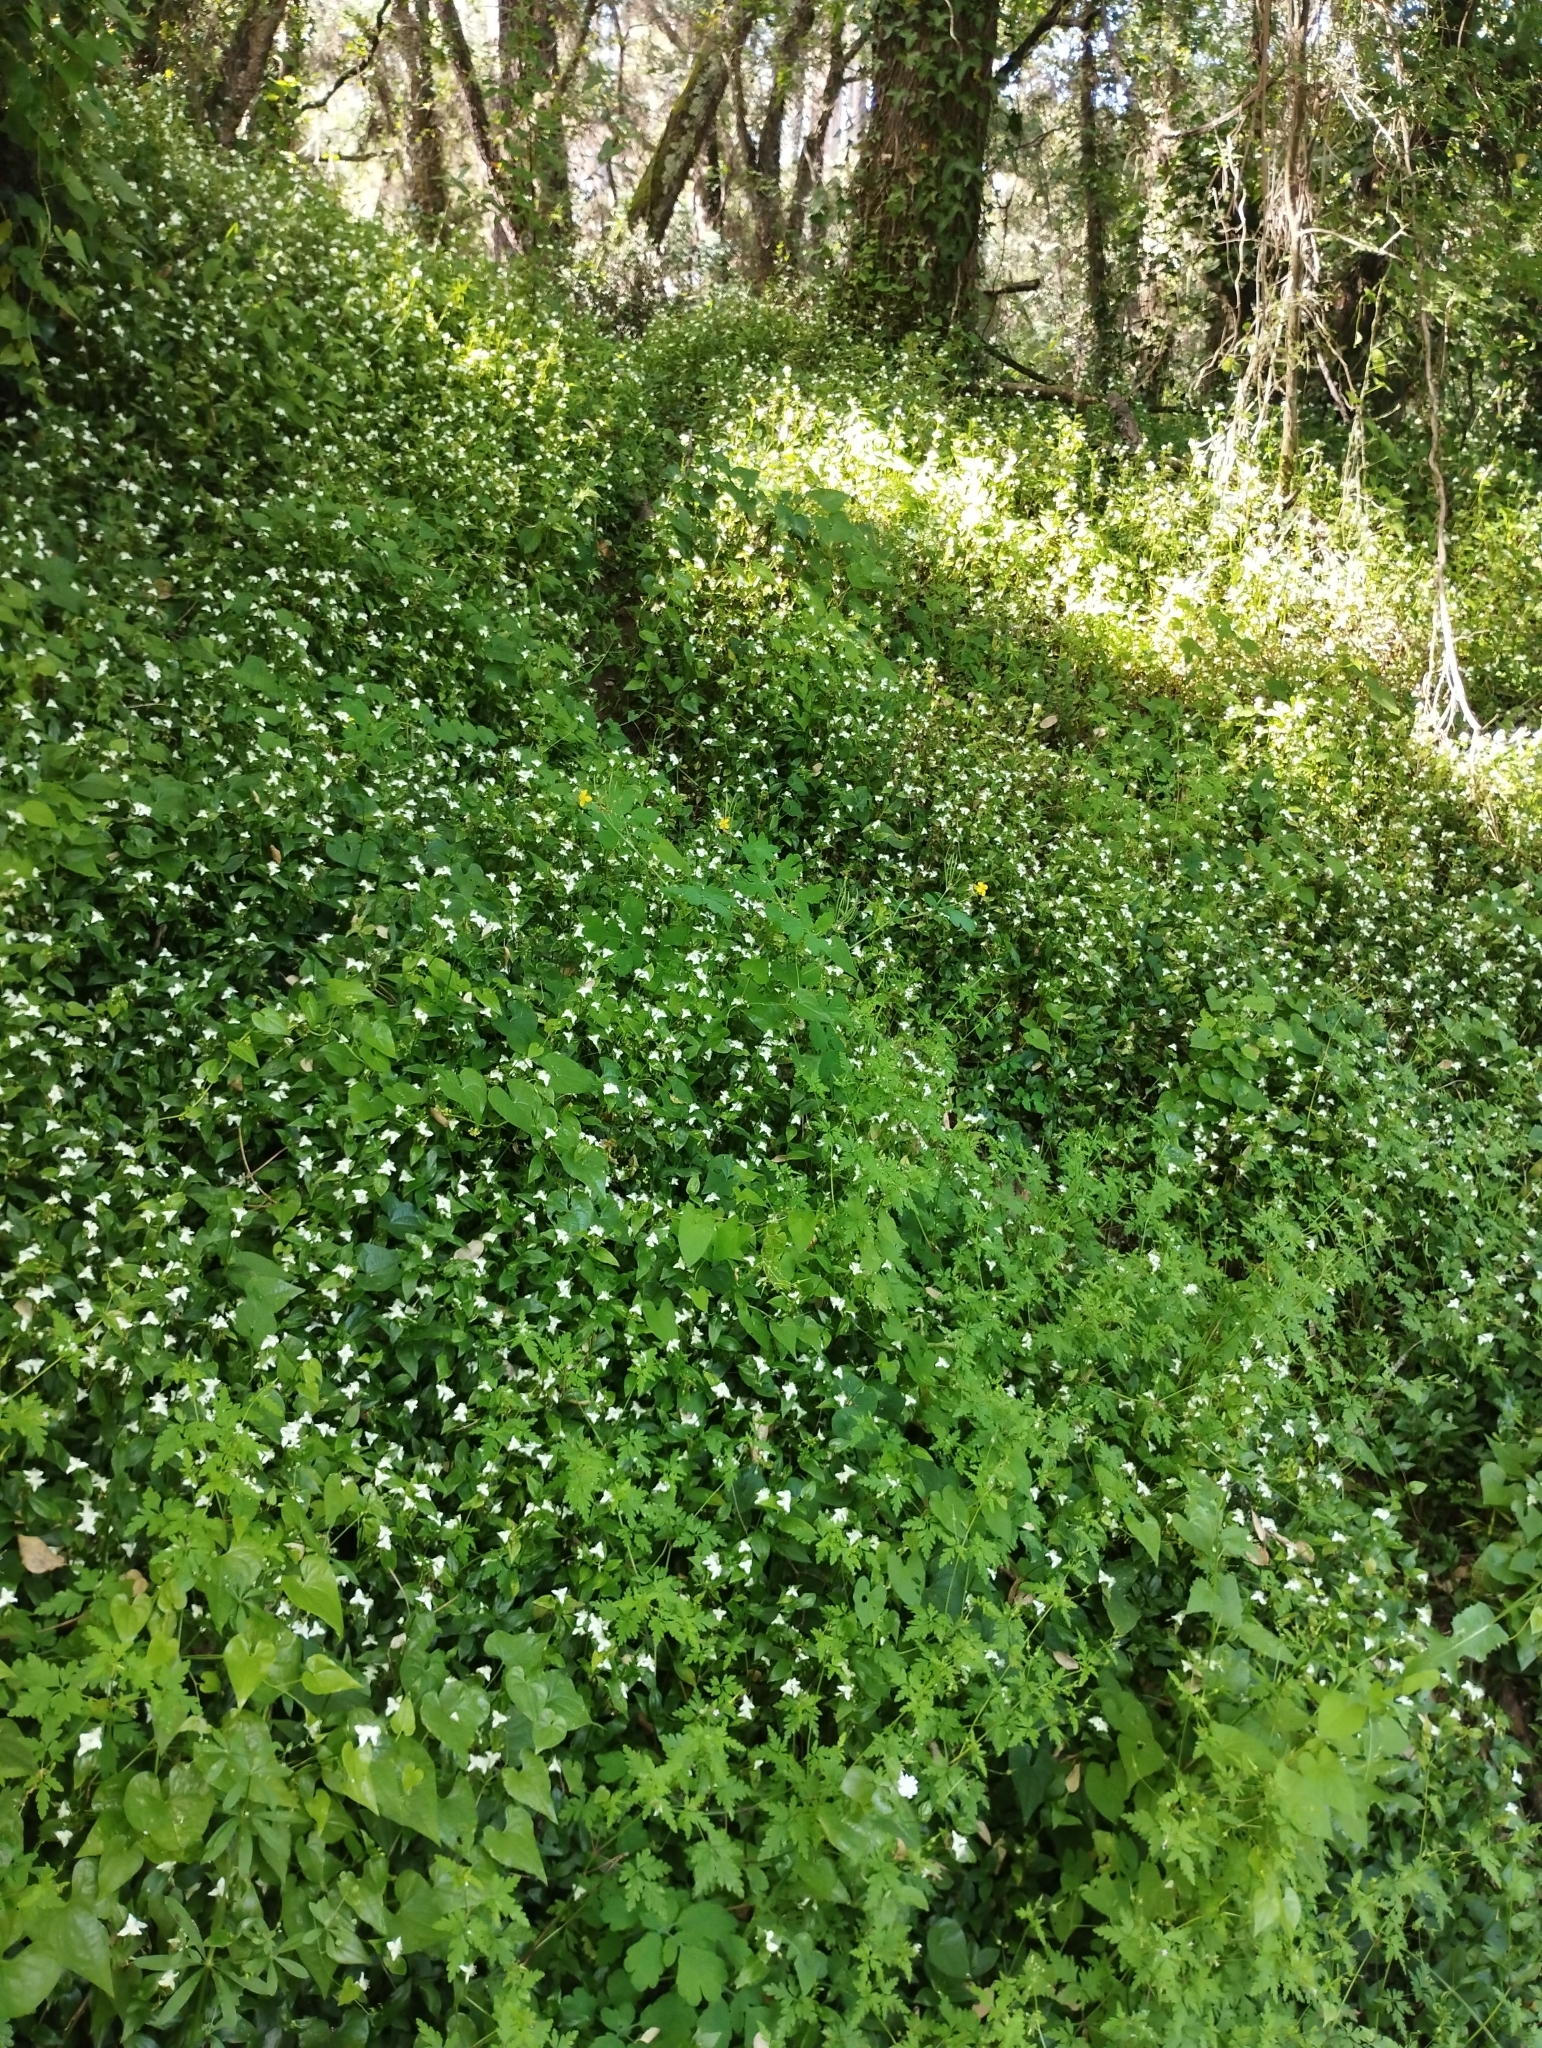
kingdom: Plantae
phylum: Tracheophyta
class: Liliopsida
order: Commelinales
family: Commelinaceae
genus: Tradescantia
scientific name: Tradescantia fluminensis
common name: Wandering-jew
